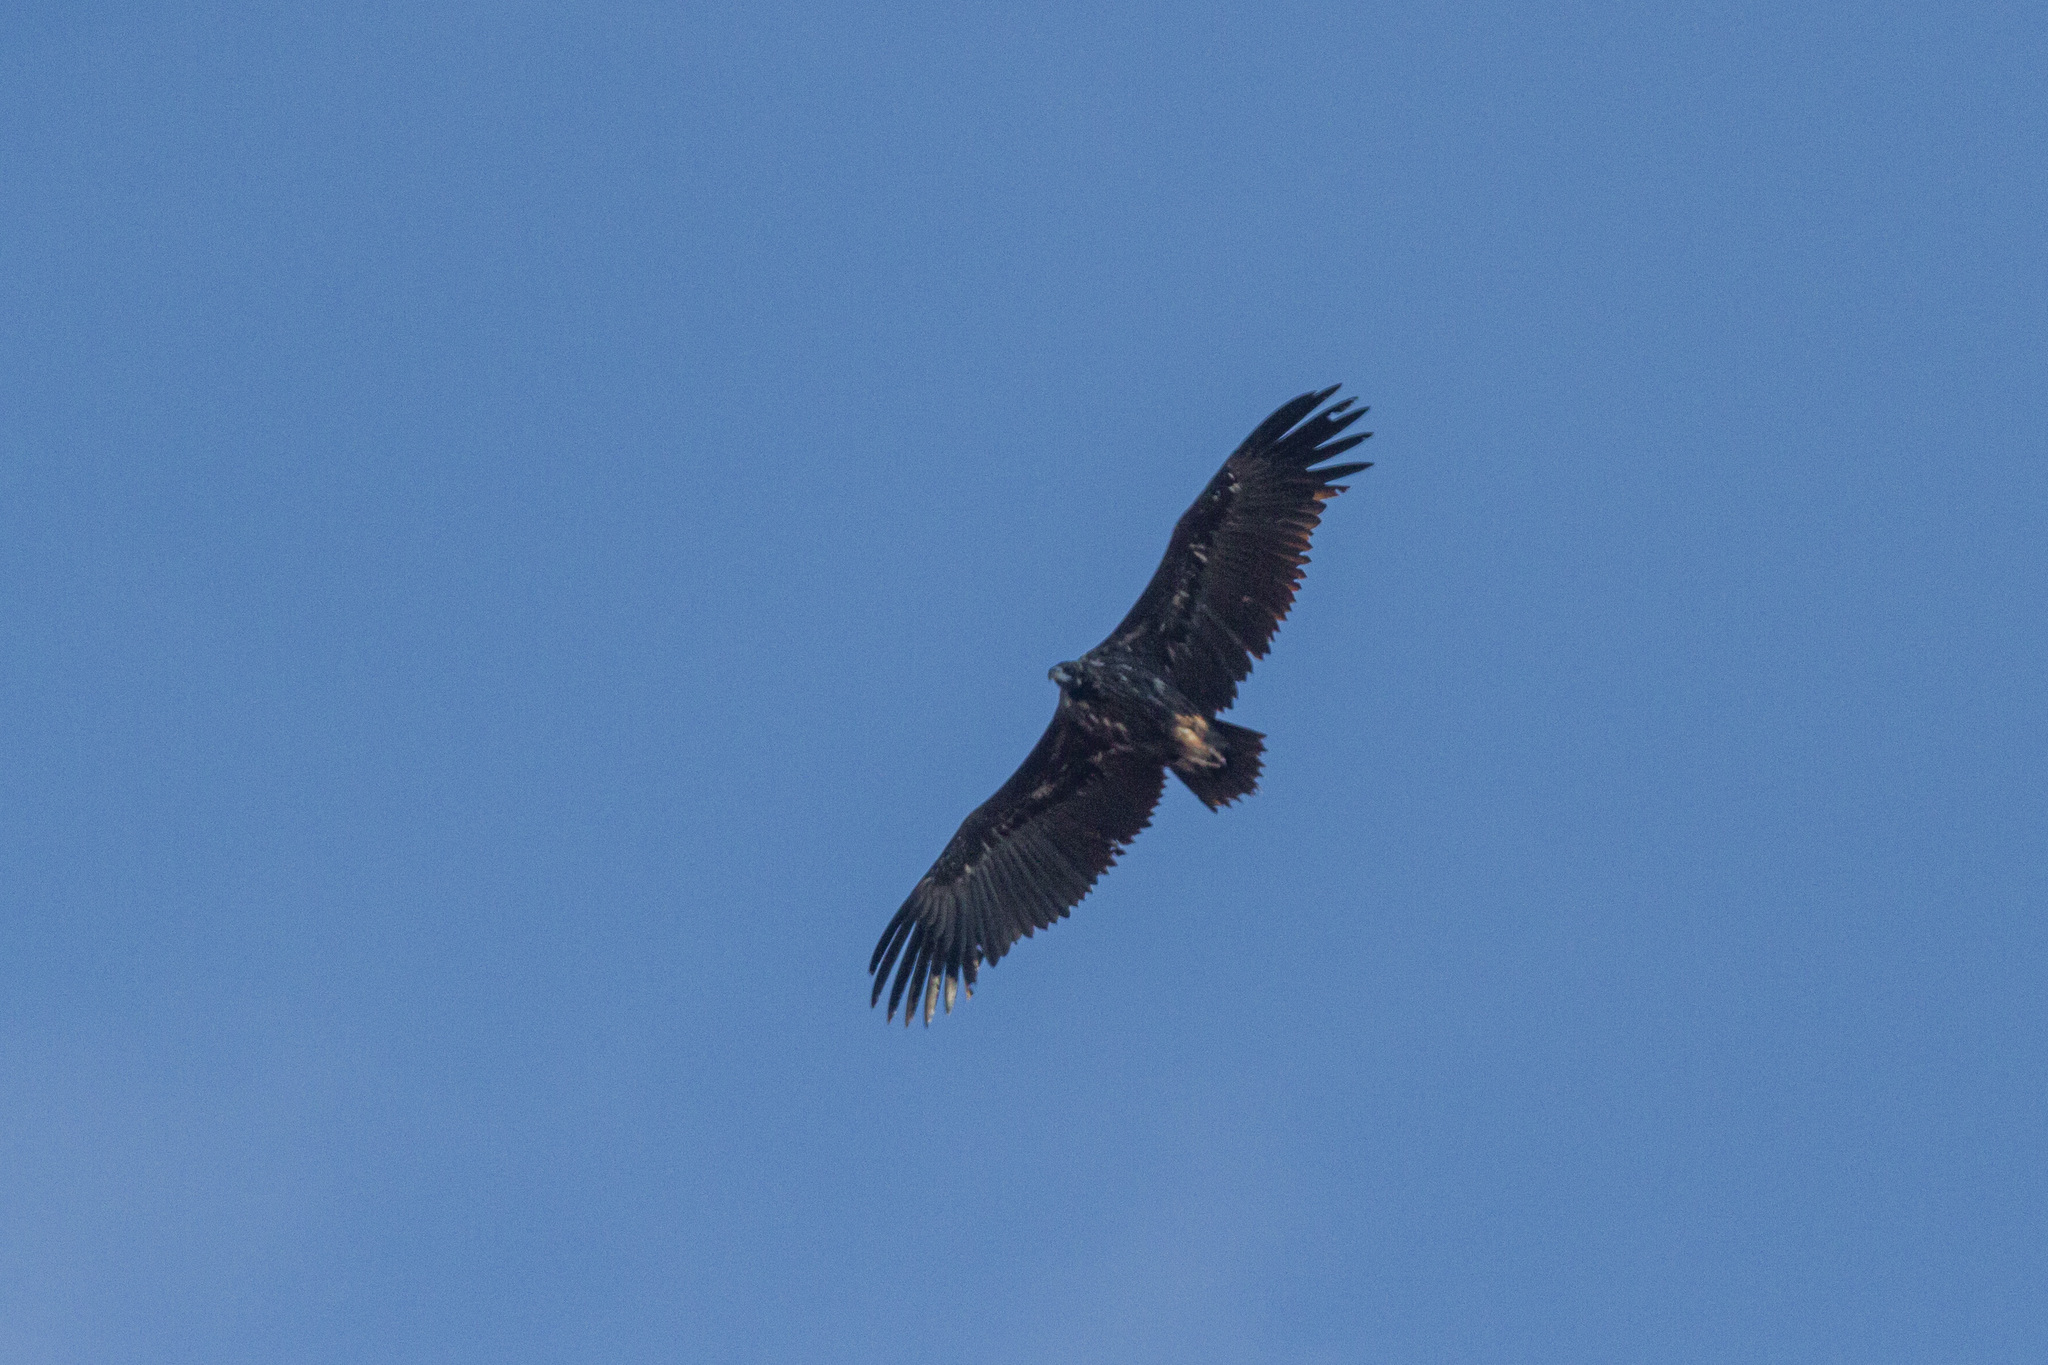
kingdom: Animalia
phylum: Chordata
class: Aves
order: Accipitriformes
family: Accipitridae
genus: Aegypius
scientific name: Aegypius monachus
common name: Cinereous vulture
